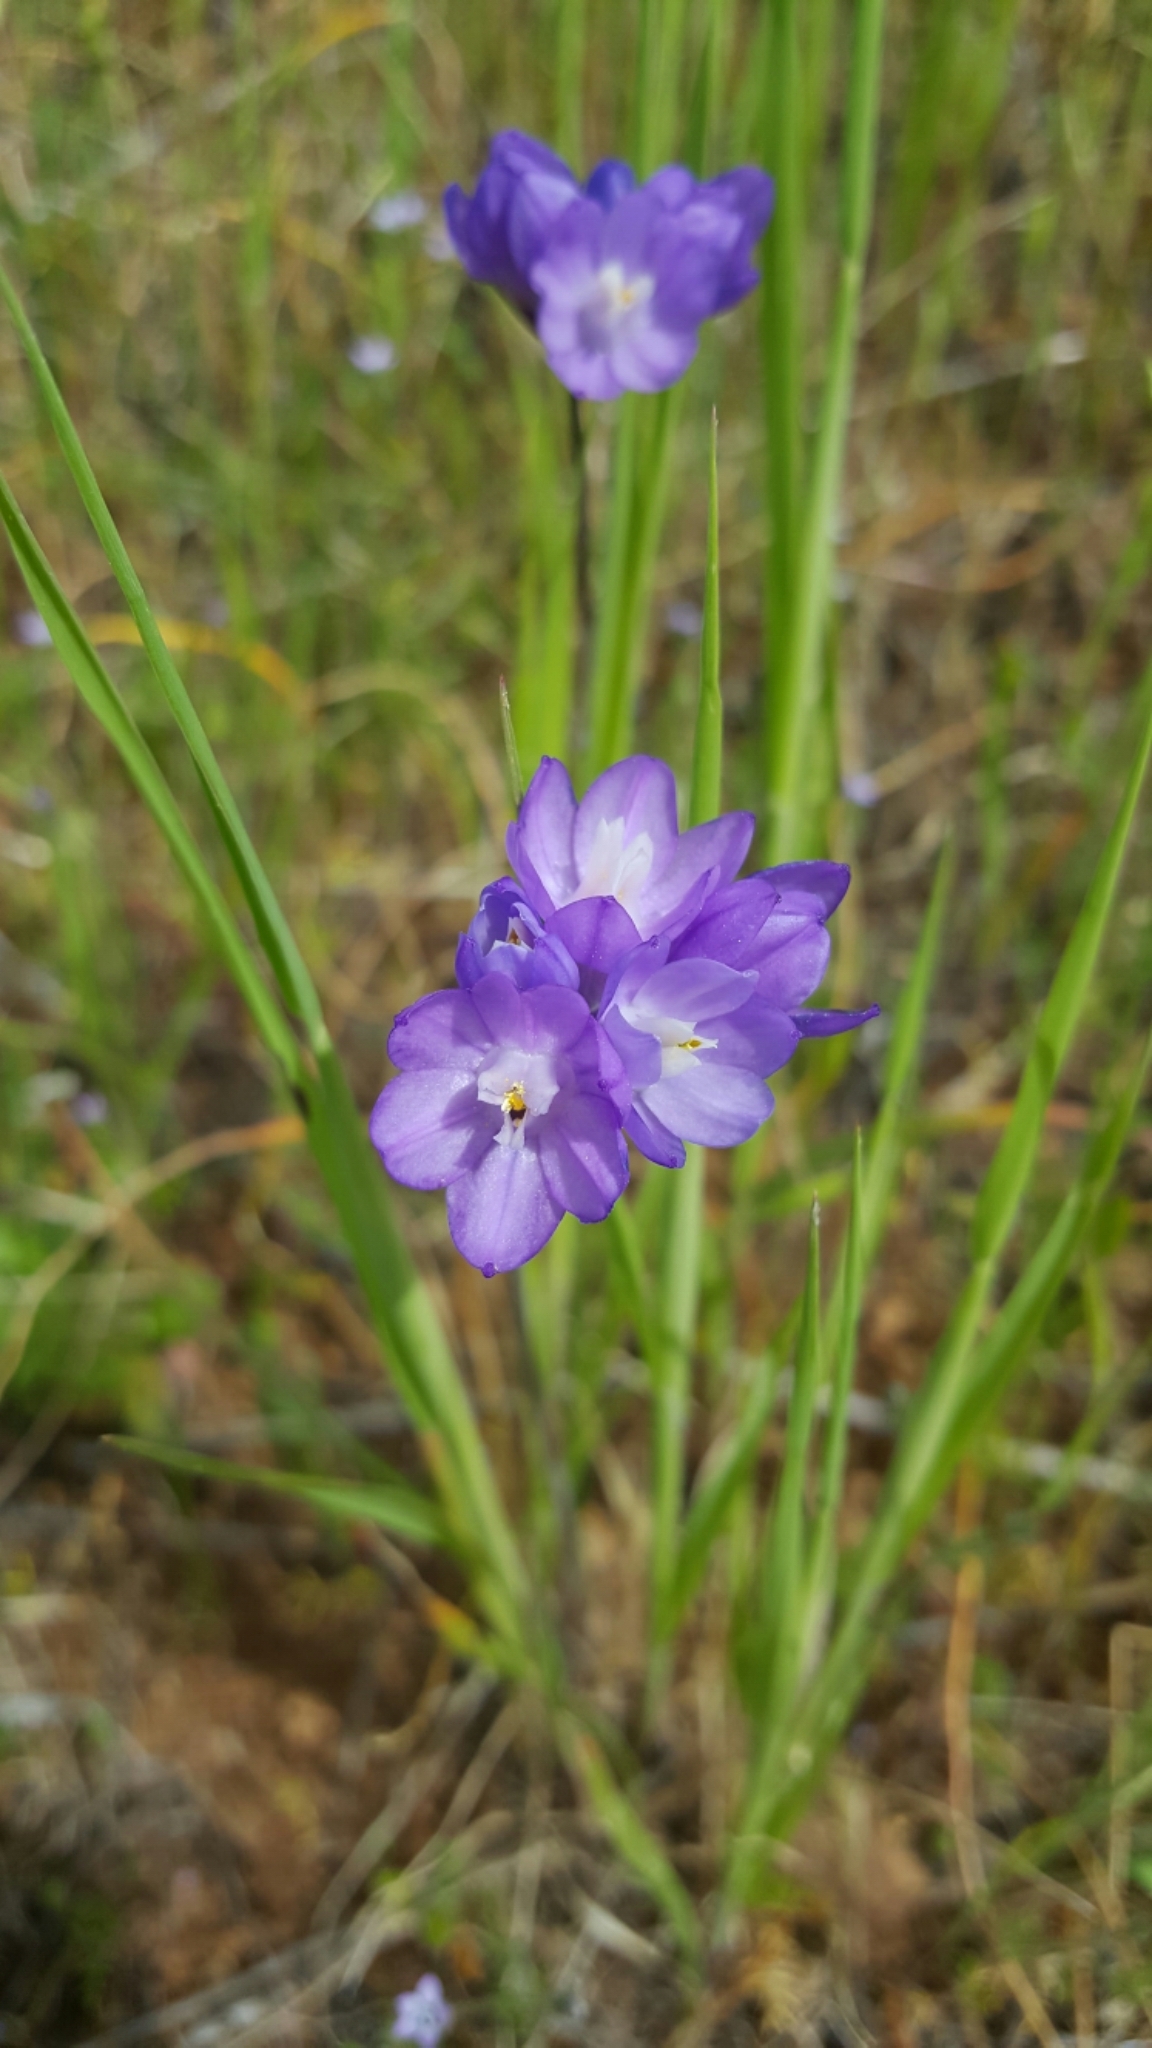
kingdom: Plantae
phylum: Tracheophyta
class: Liliopsida
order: Asparagales
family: Asparagaceae
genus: Dipterostemon
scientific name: Dipterostemon capitatus
